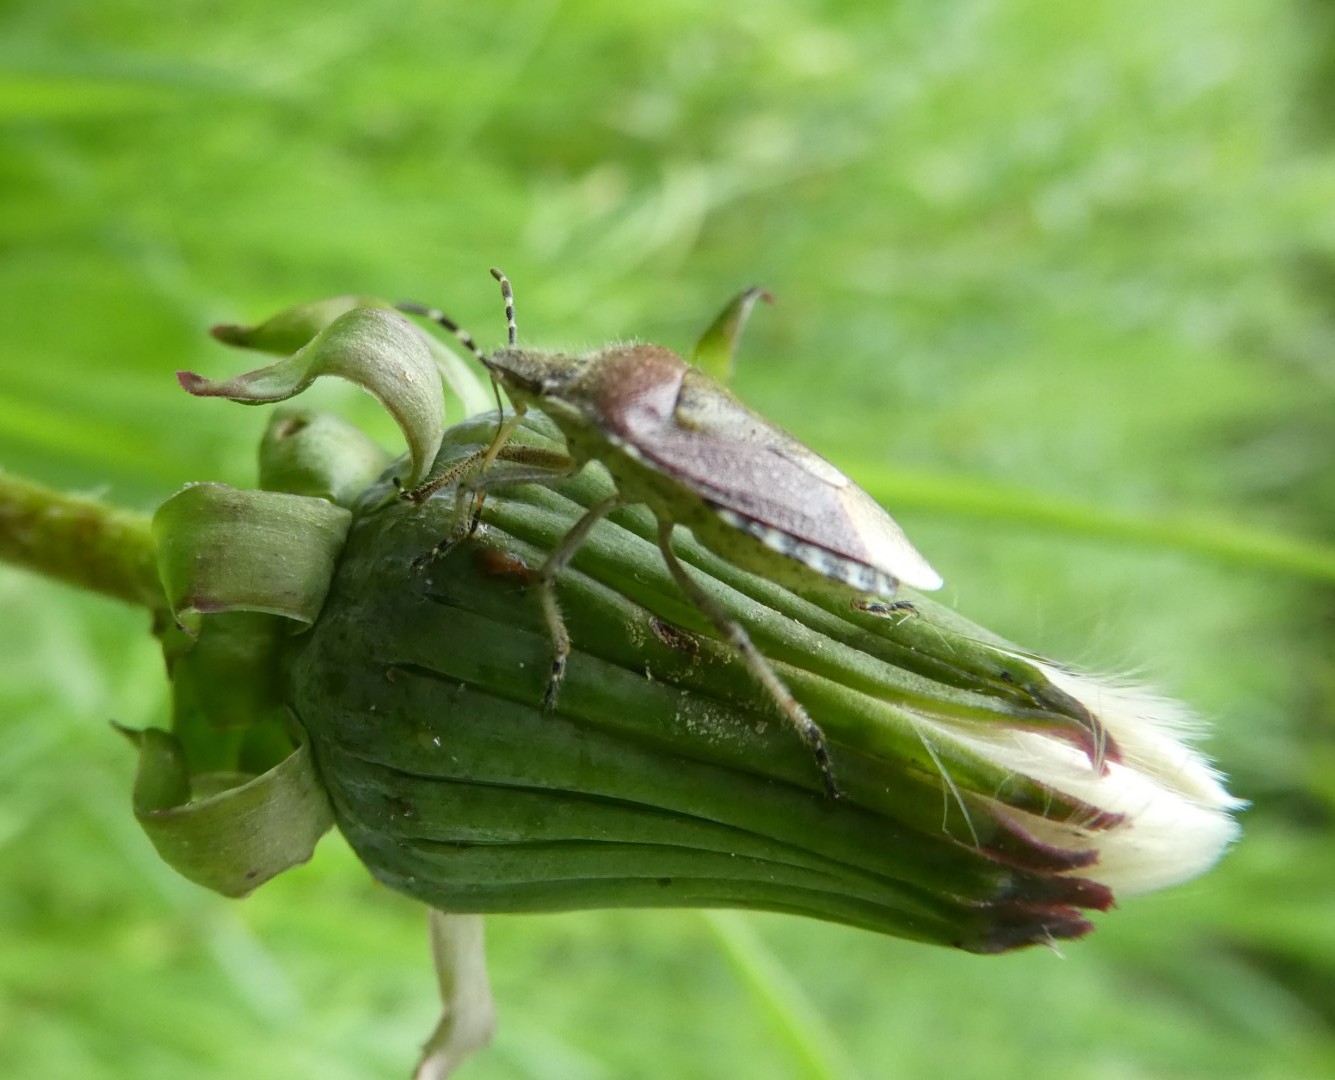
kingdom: Animalia
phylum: Arthropoda
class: Insecta
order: Hemiptera
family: Pentatomidae
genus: Dolycoris
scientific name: Dolycoris baccarum
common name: Sloe bug
